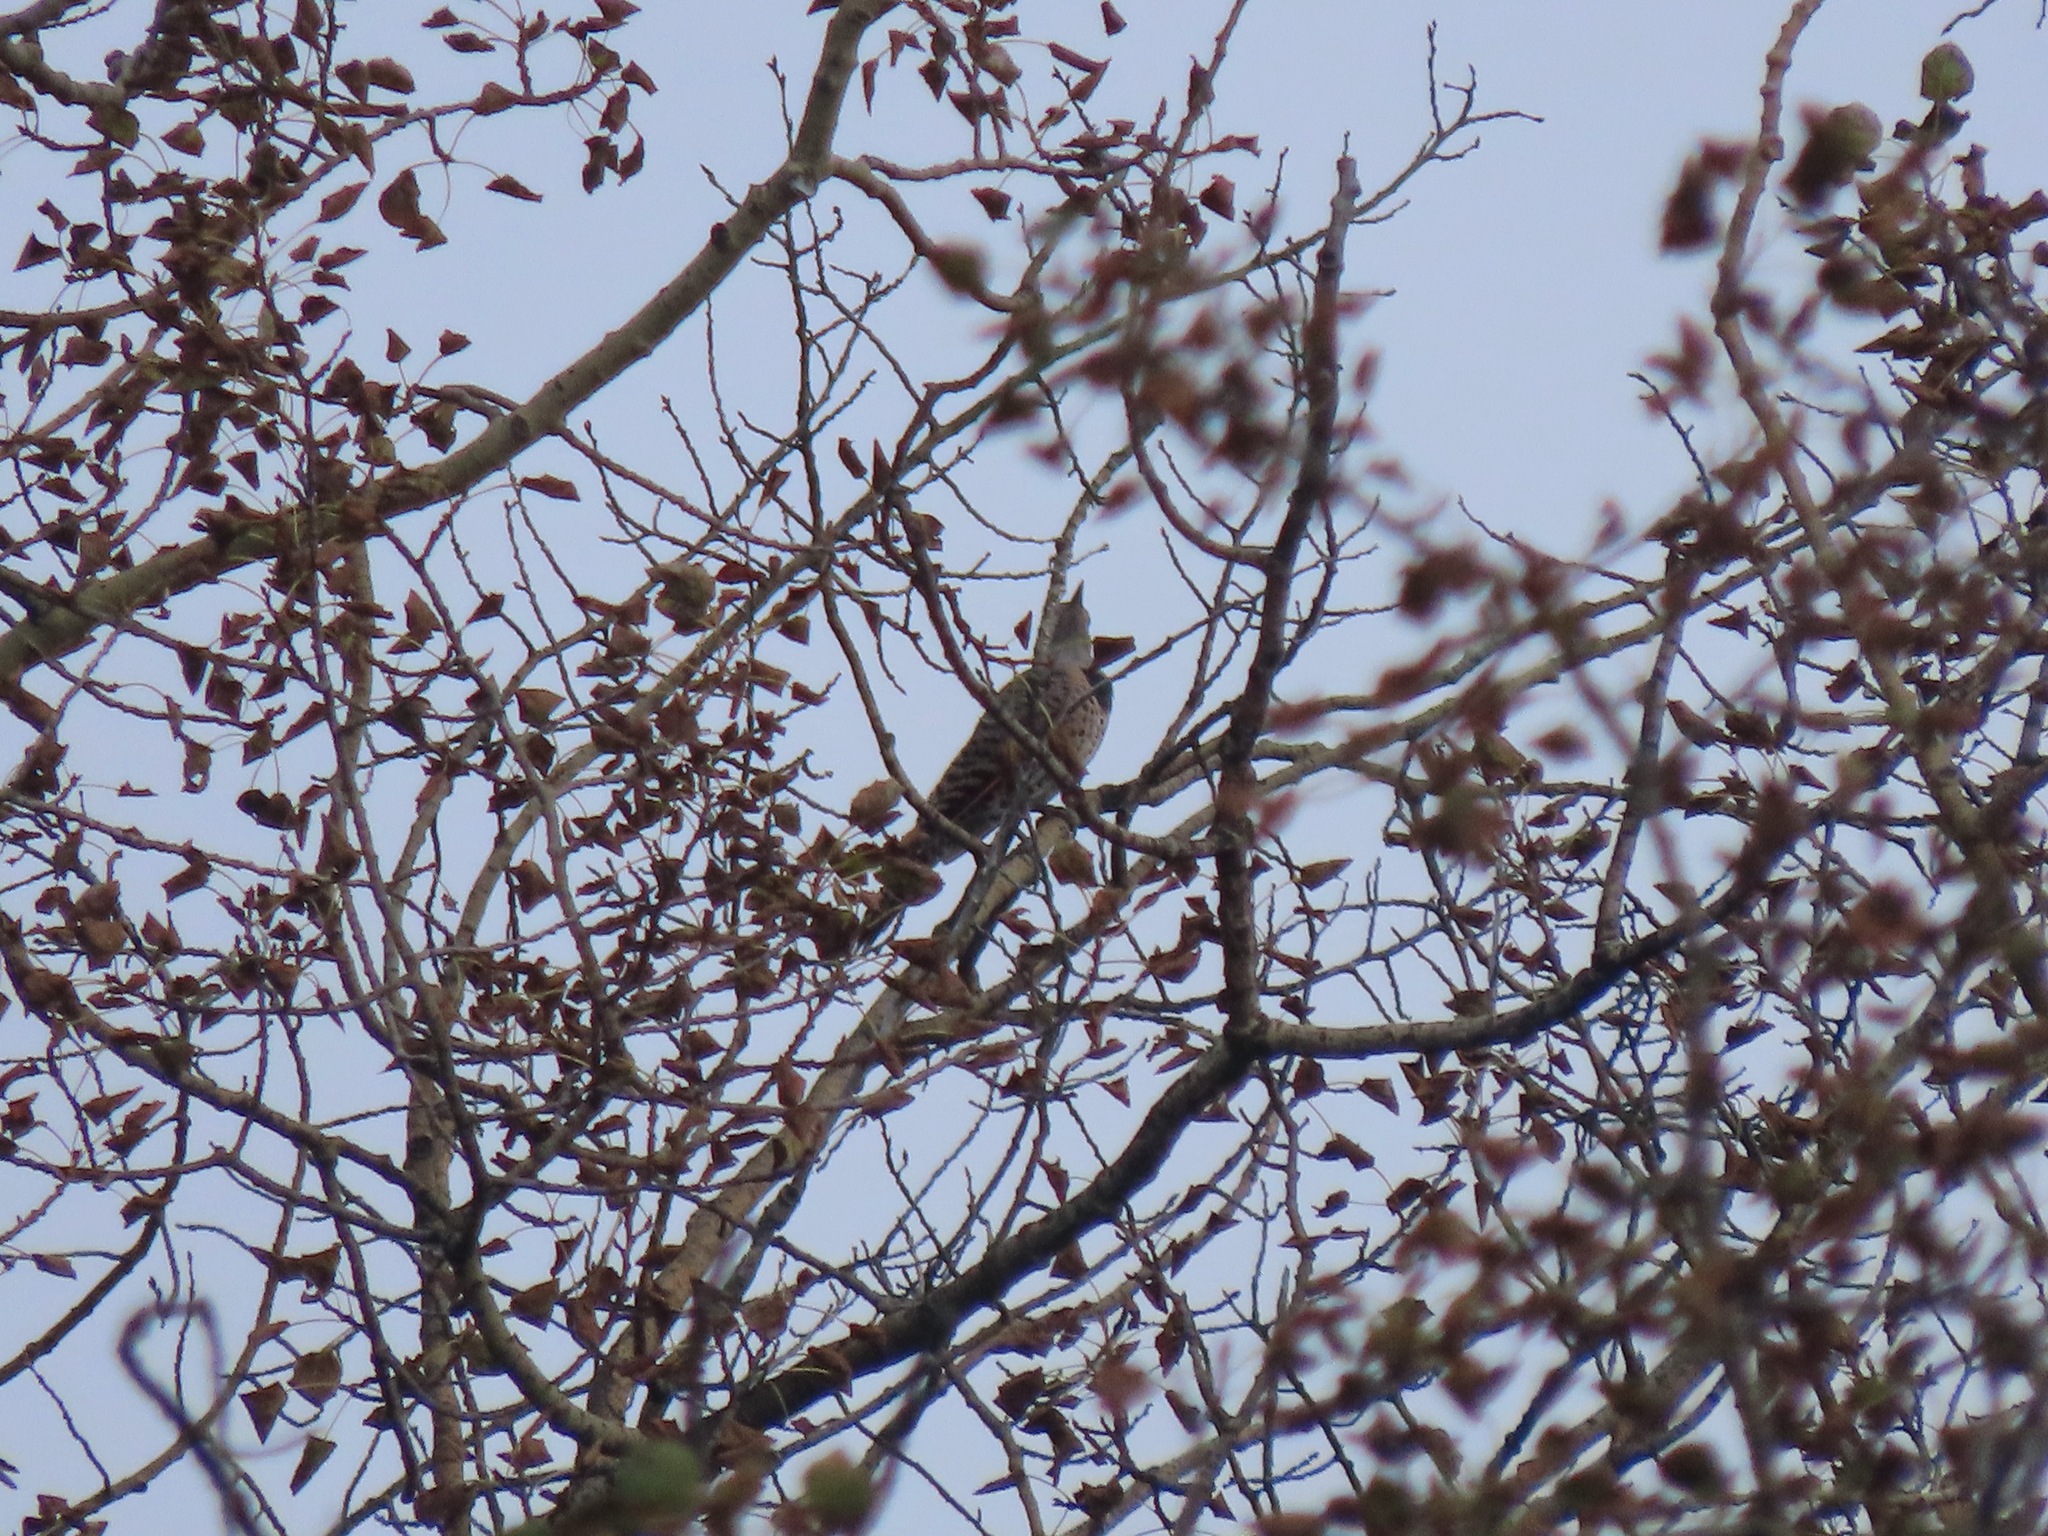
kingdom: Animalia
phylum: Chordata
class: Aves
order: Piciformes
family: Picidae
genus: Colaptes
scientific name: Colaptes auratus
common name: Northern flicker
